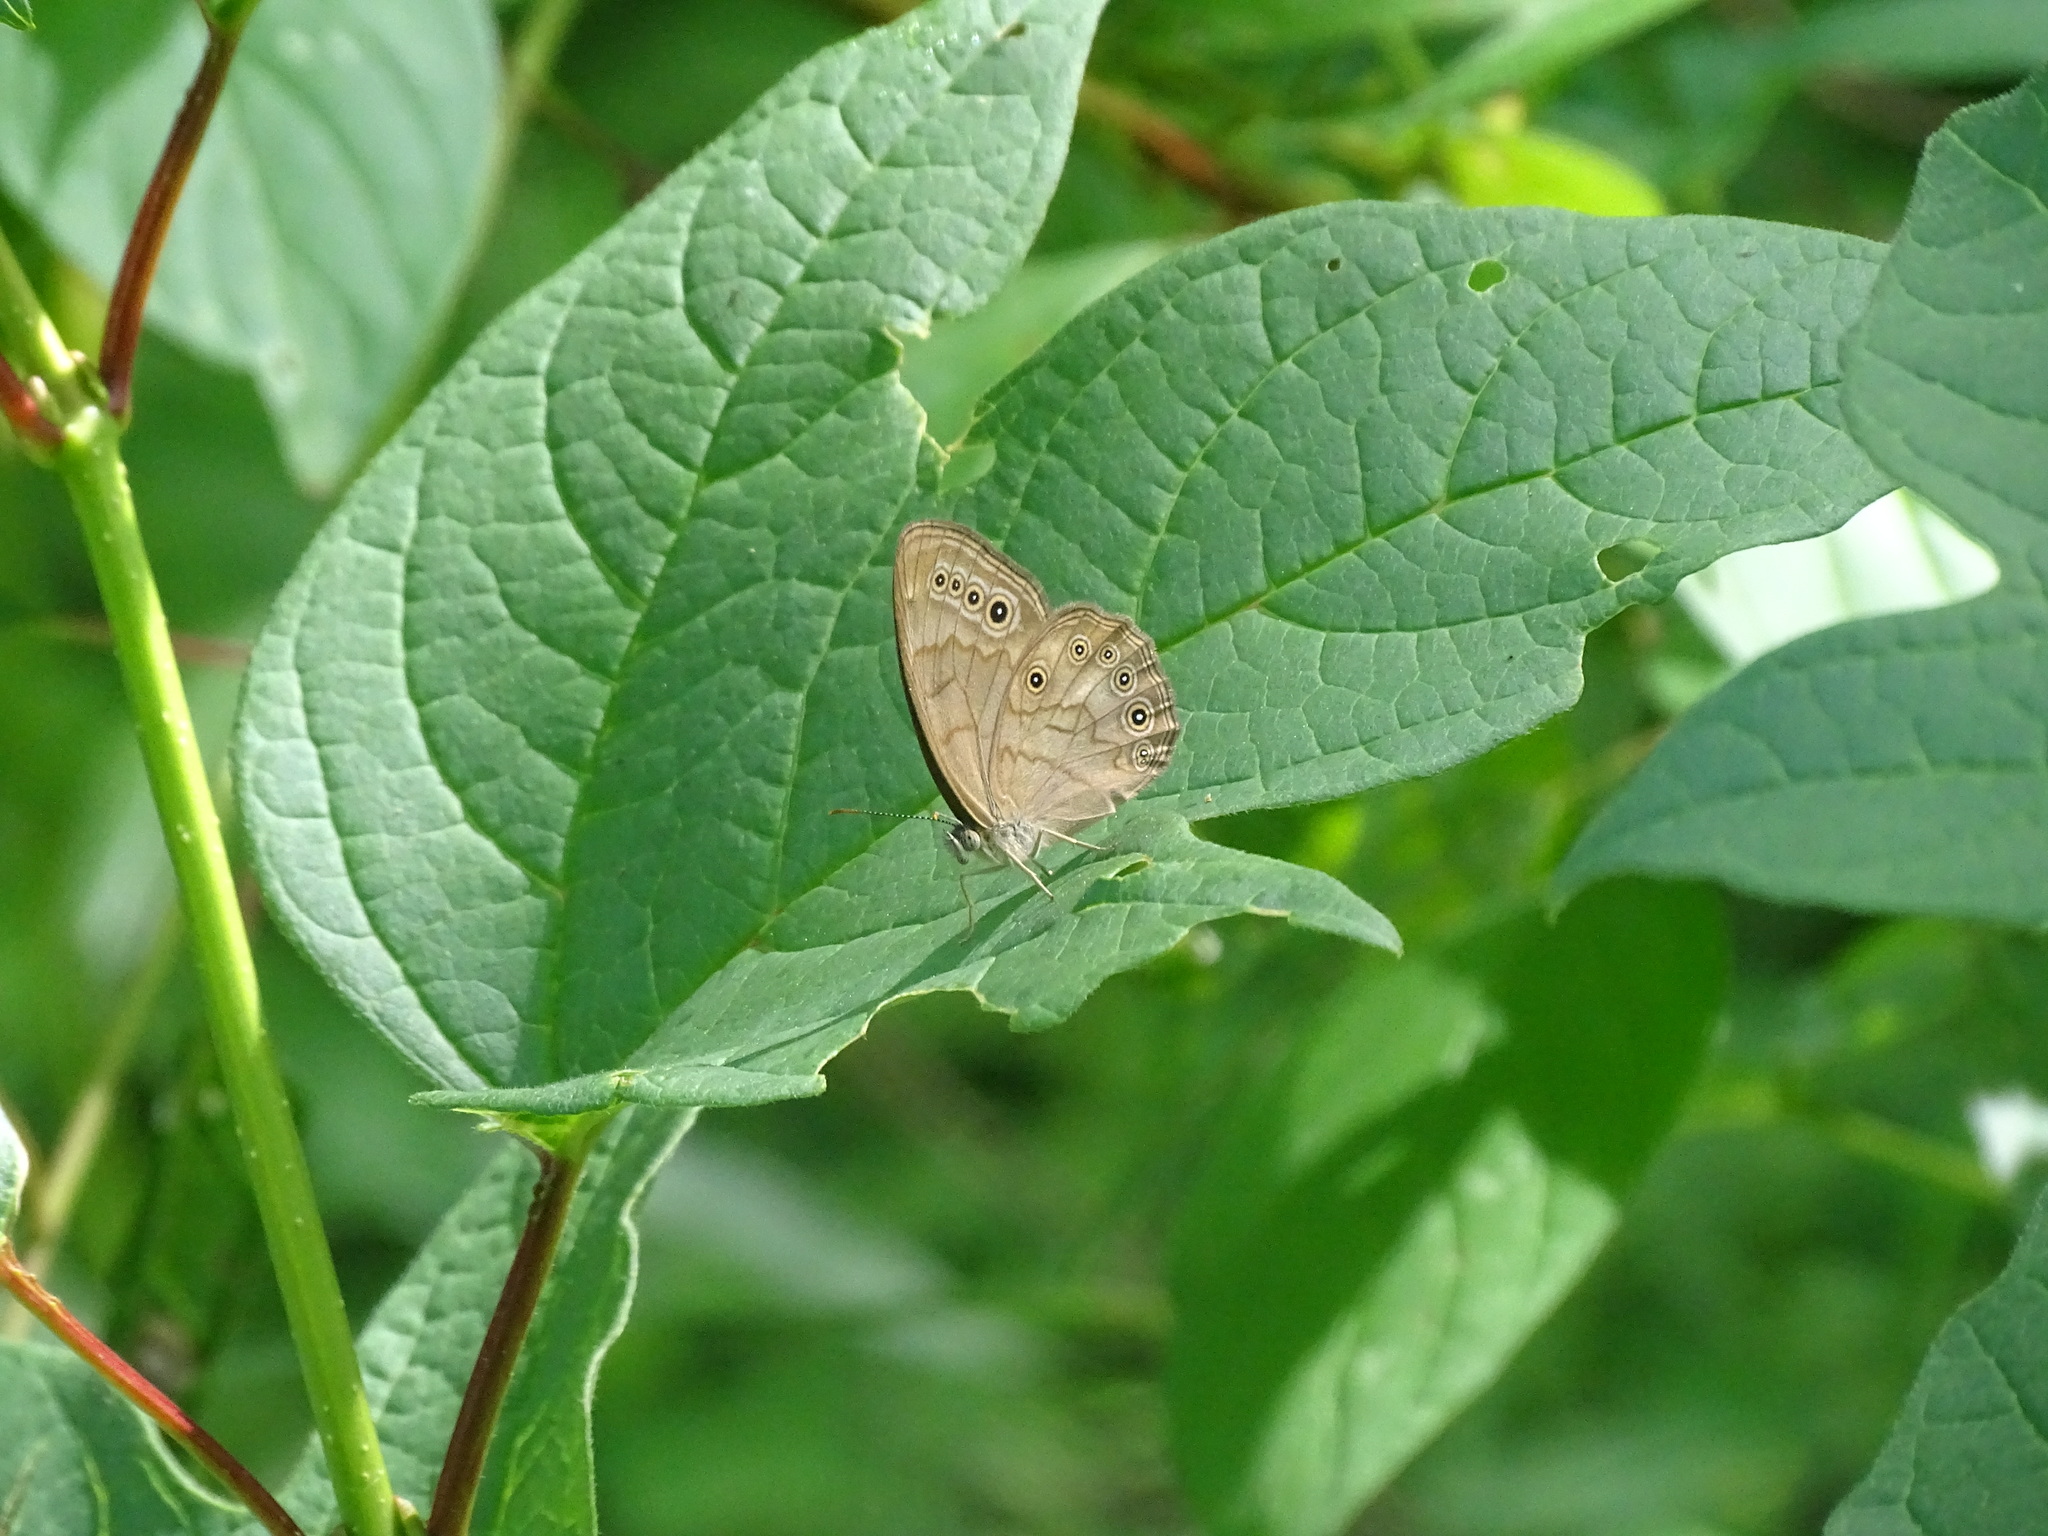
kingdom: Animalia
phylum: Arthropoda
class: Insecta
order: Lepidoptera
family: Nymphalidae
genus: Lethe
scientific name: Lethe eurydice
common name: Eyed brown
